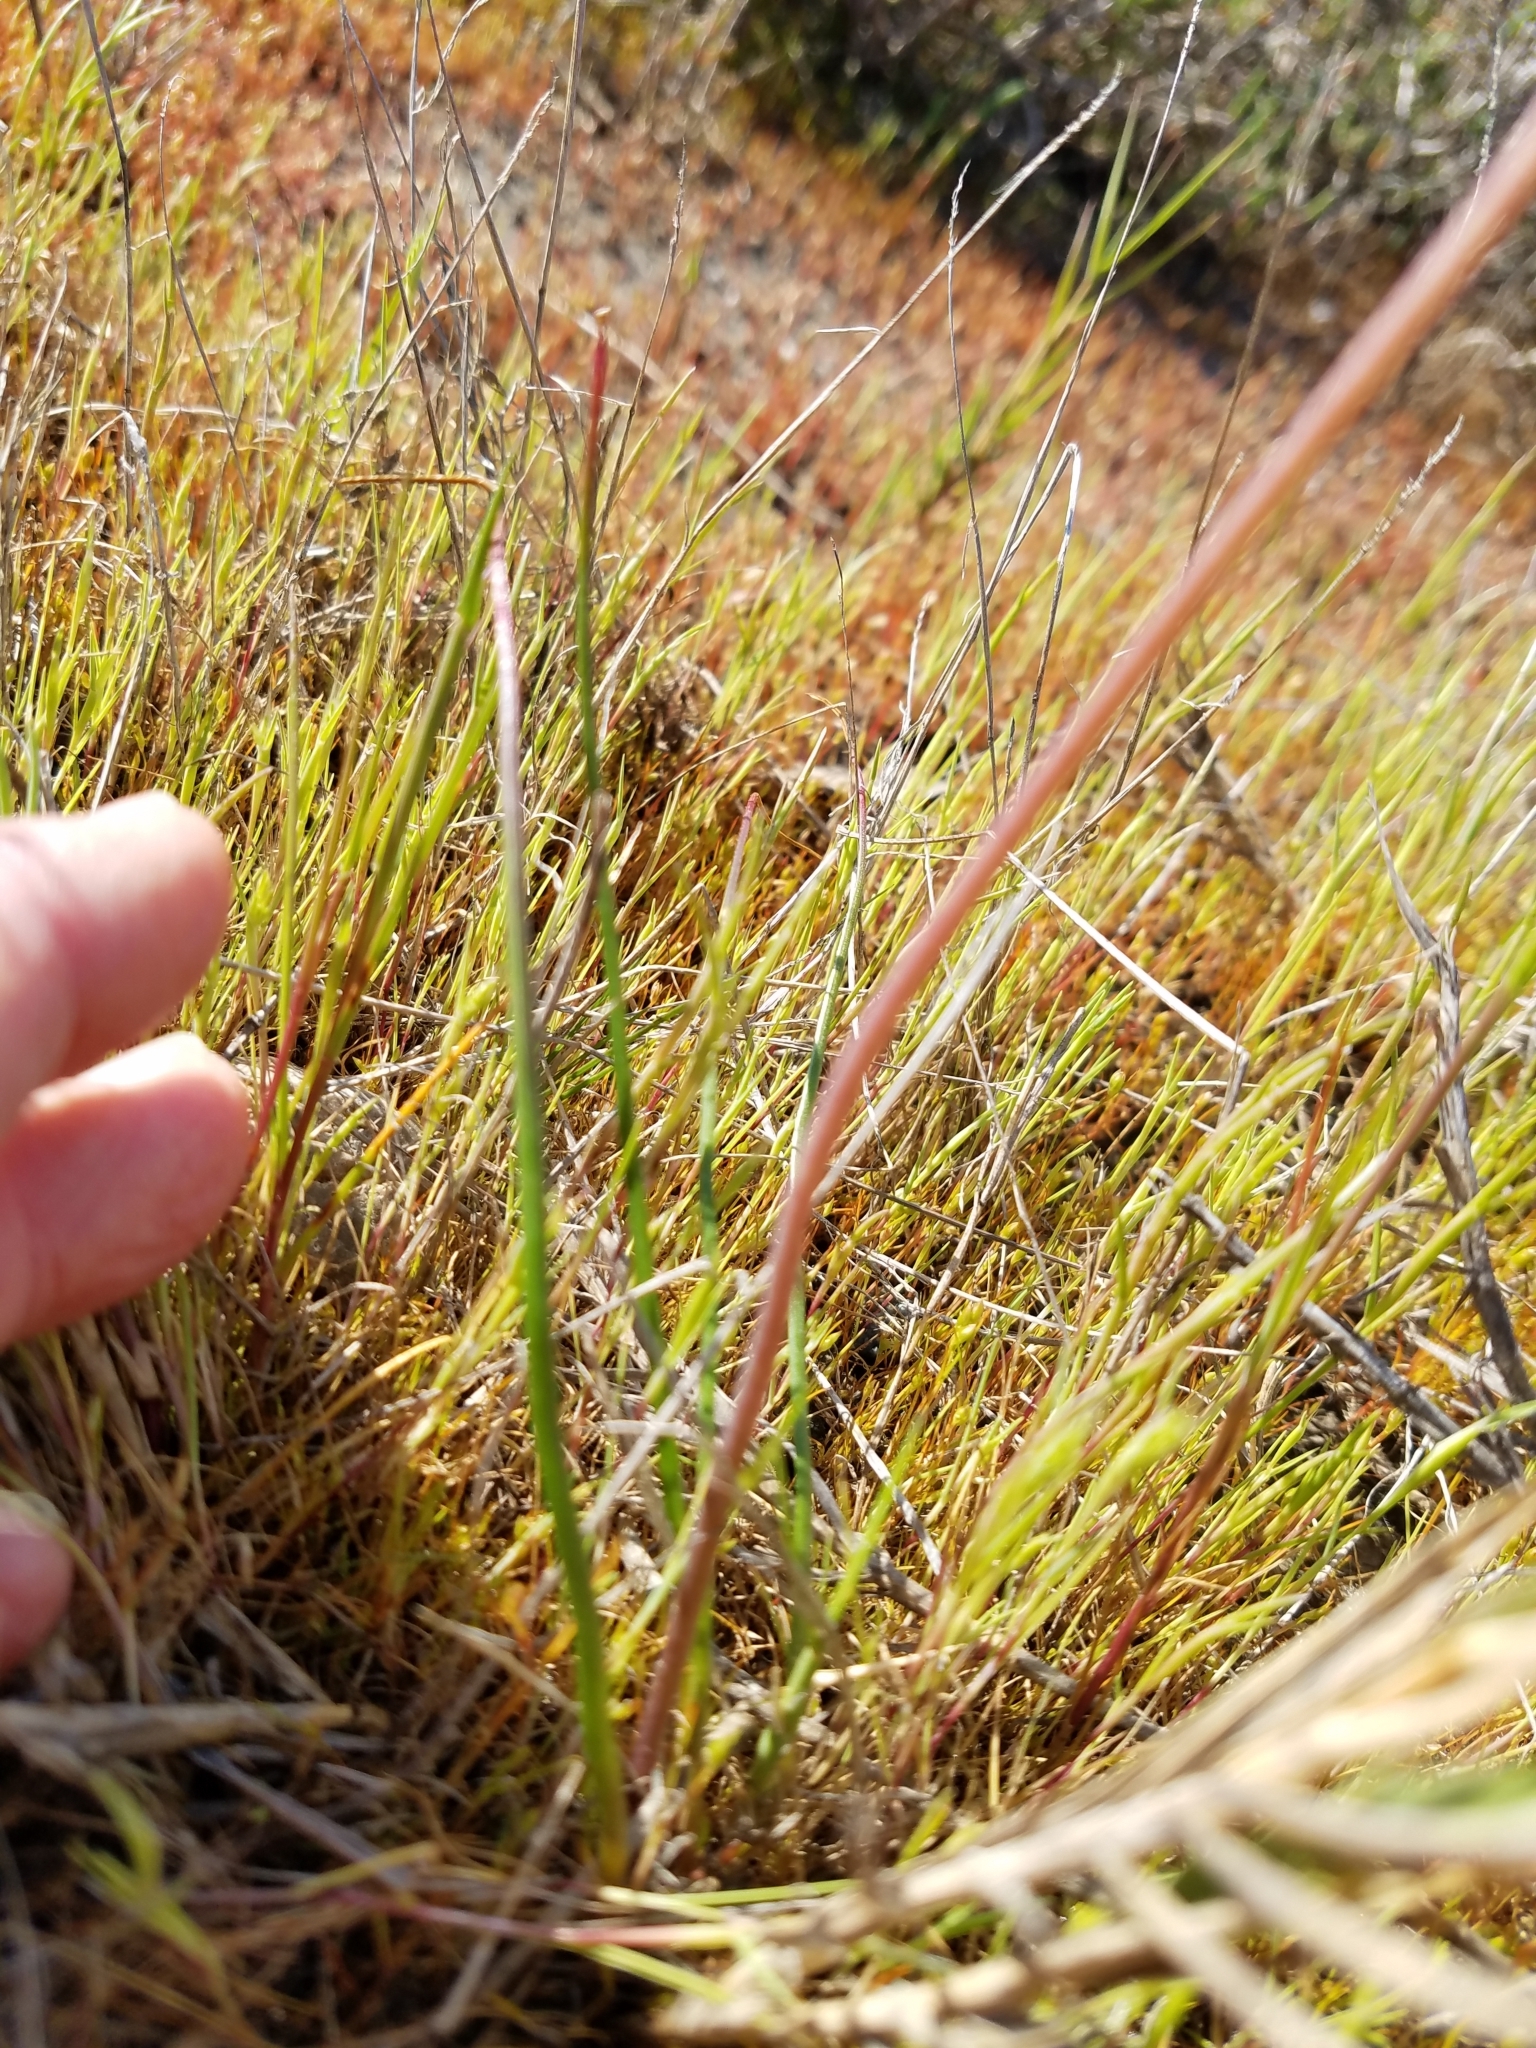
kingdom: Plantae
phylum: Tracheophyta
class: Liliopsida
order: Asparagales
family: Asparagaceae
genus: Muilla
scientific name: Muilla maritima
